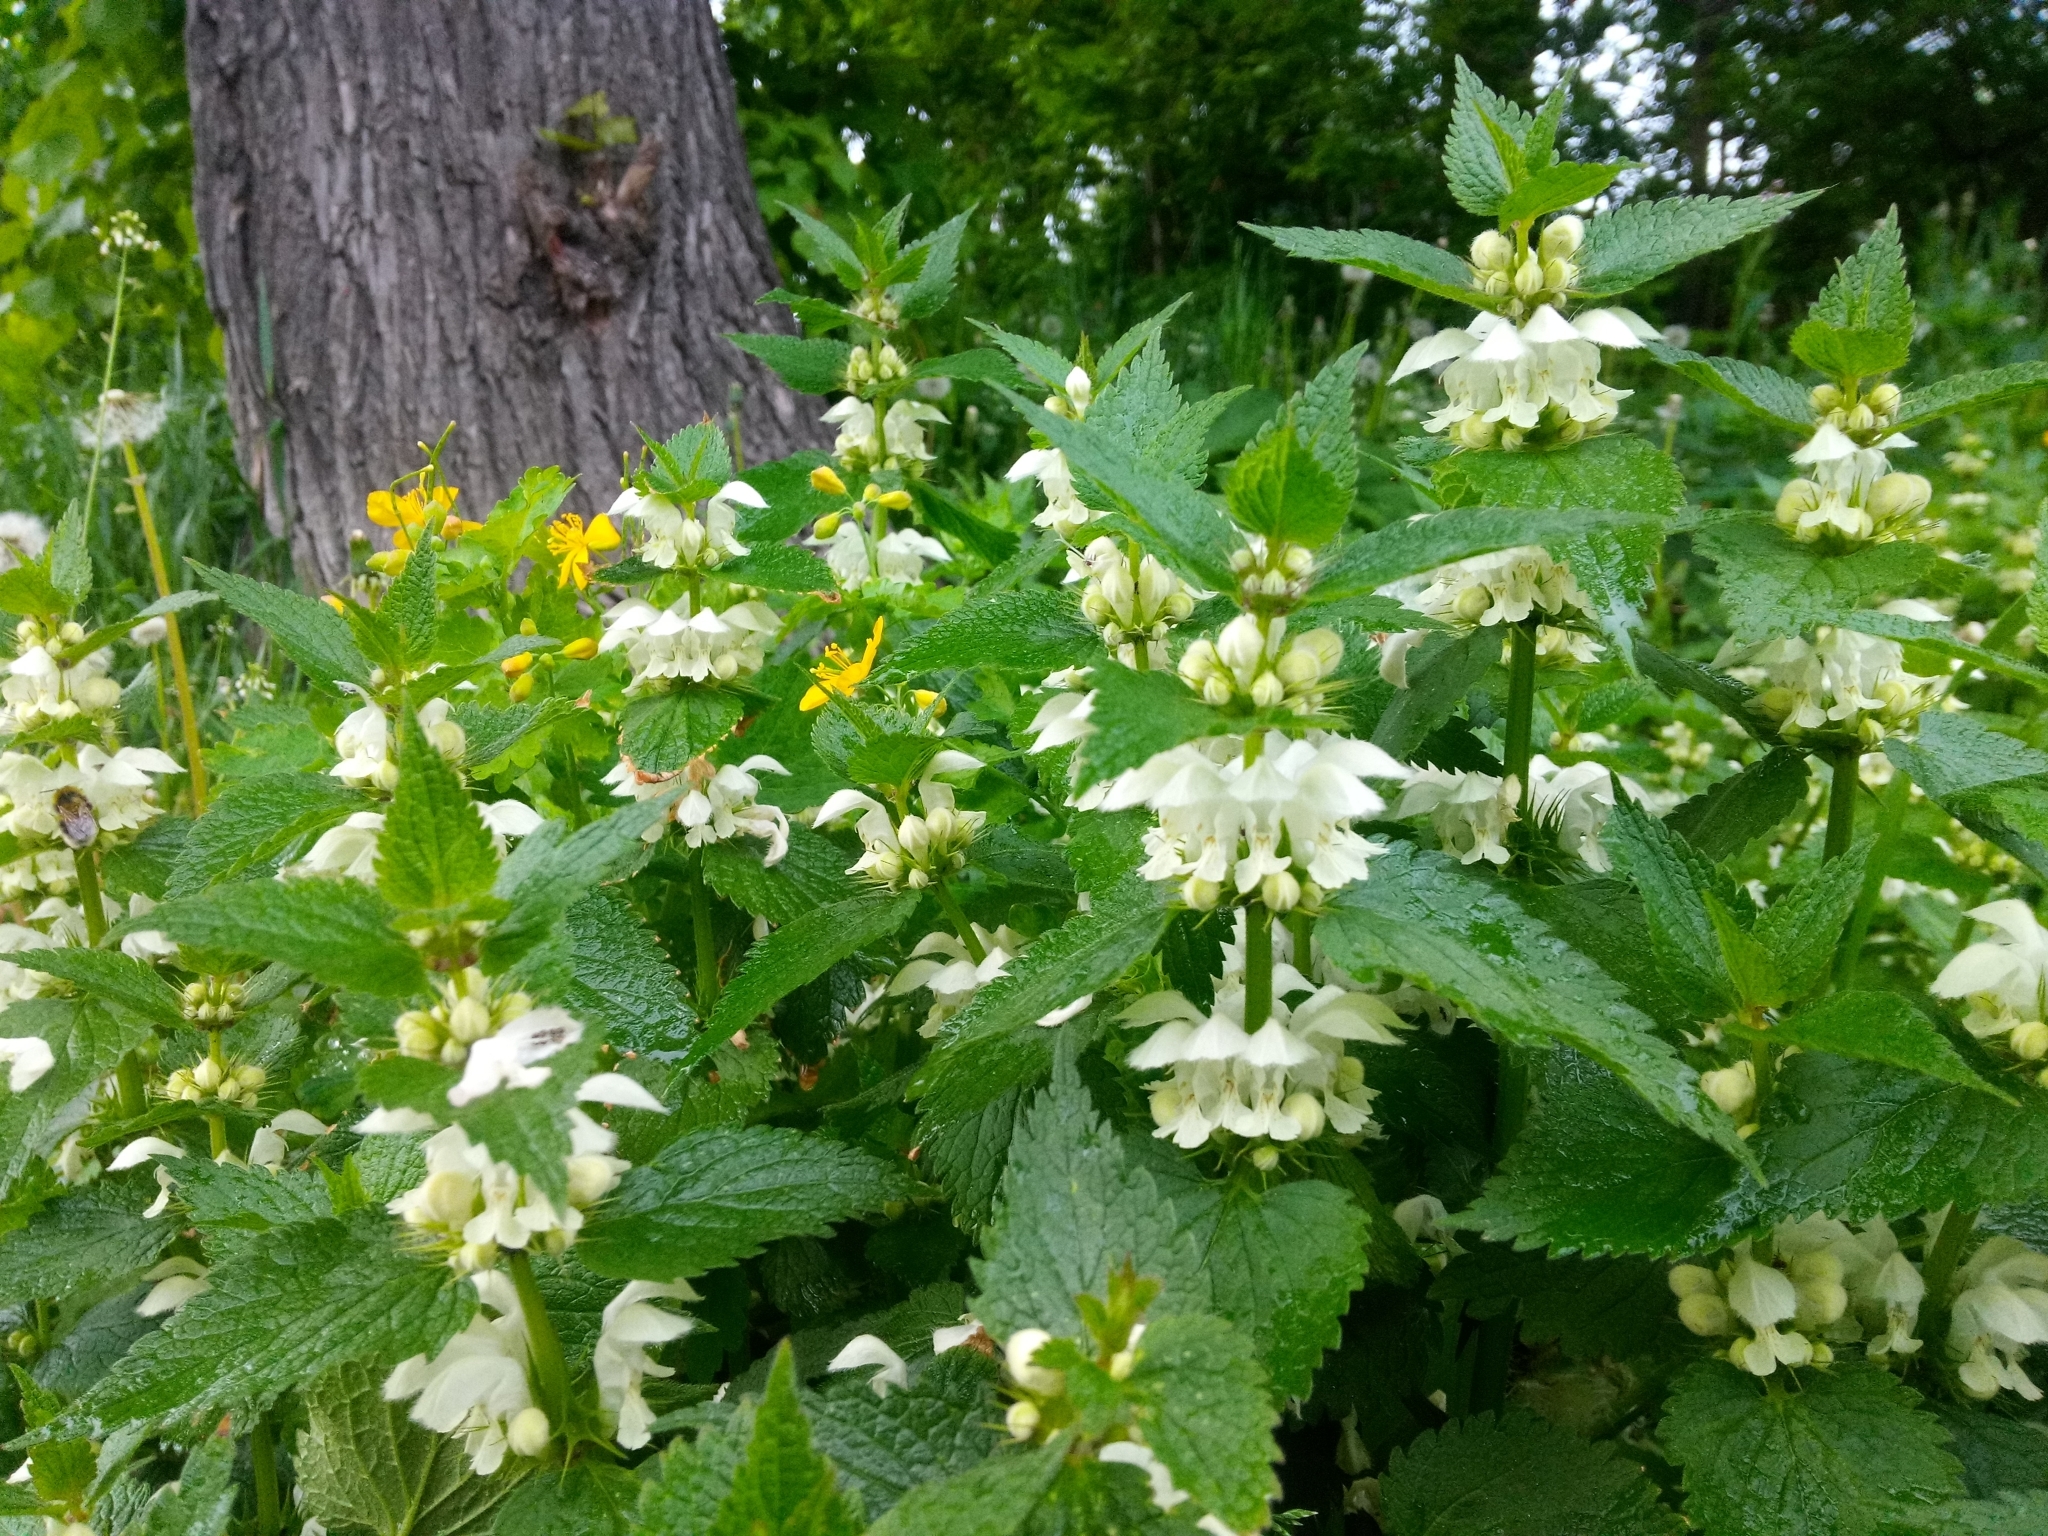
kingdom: Plantae
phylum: Tracheophyta
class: Magnoliopsida
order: Lamiales
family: Lamiaceae
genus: Lamium
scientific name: Lamium album
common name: White dead-nettle
